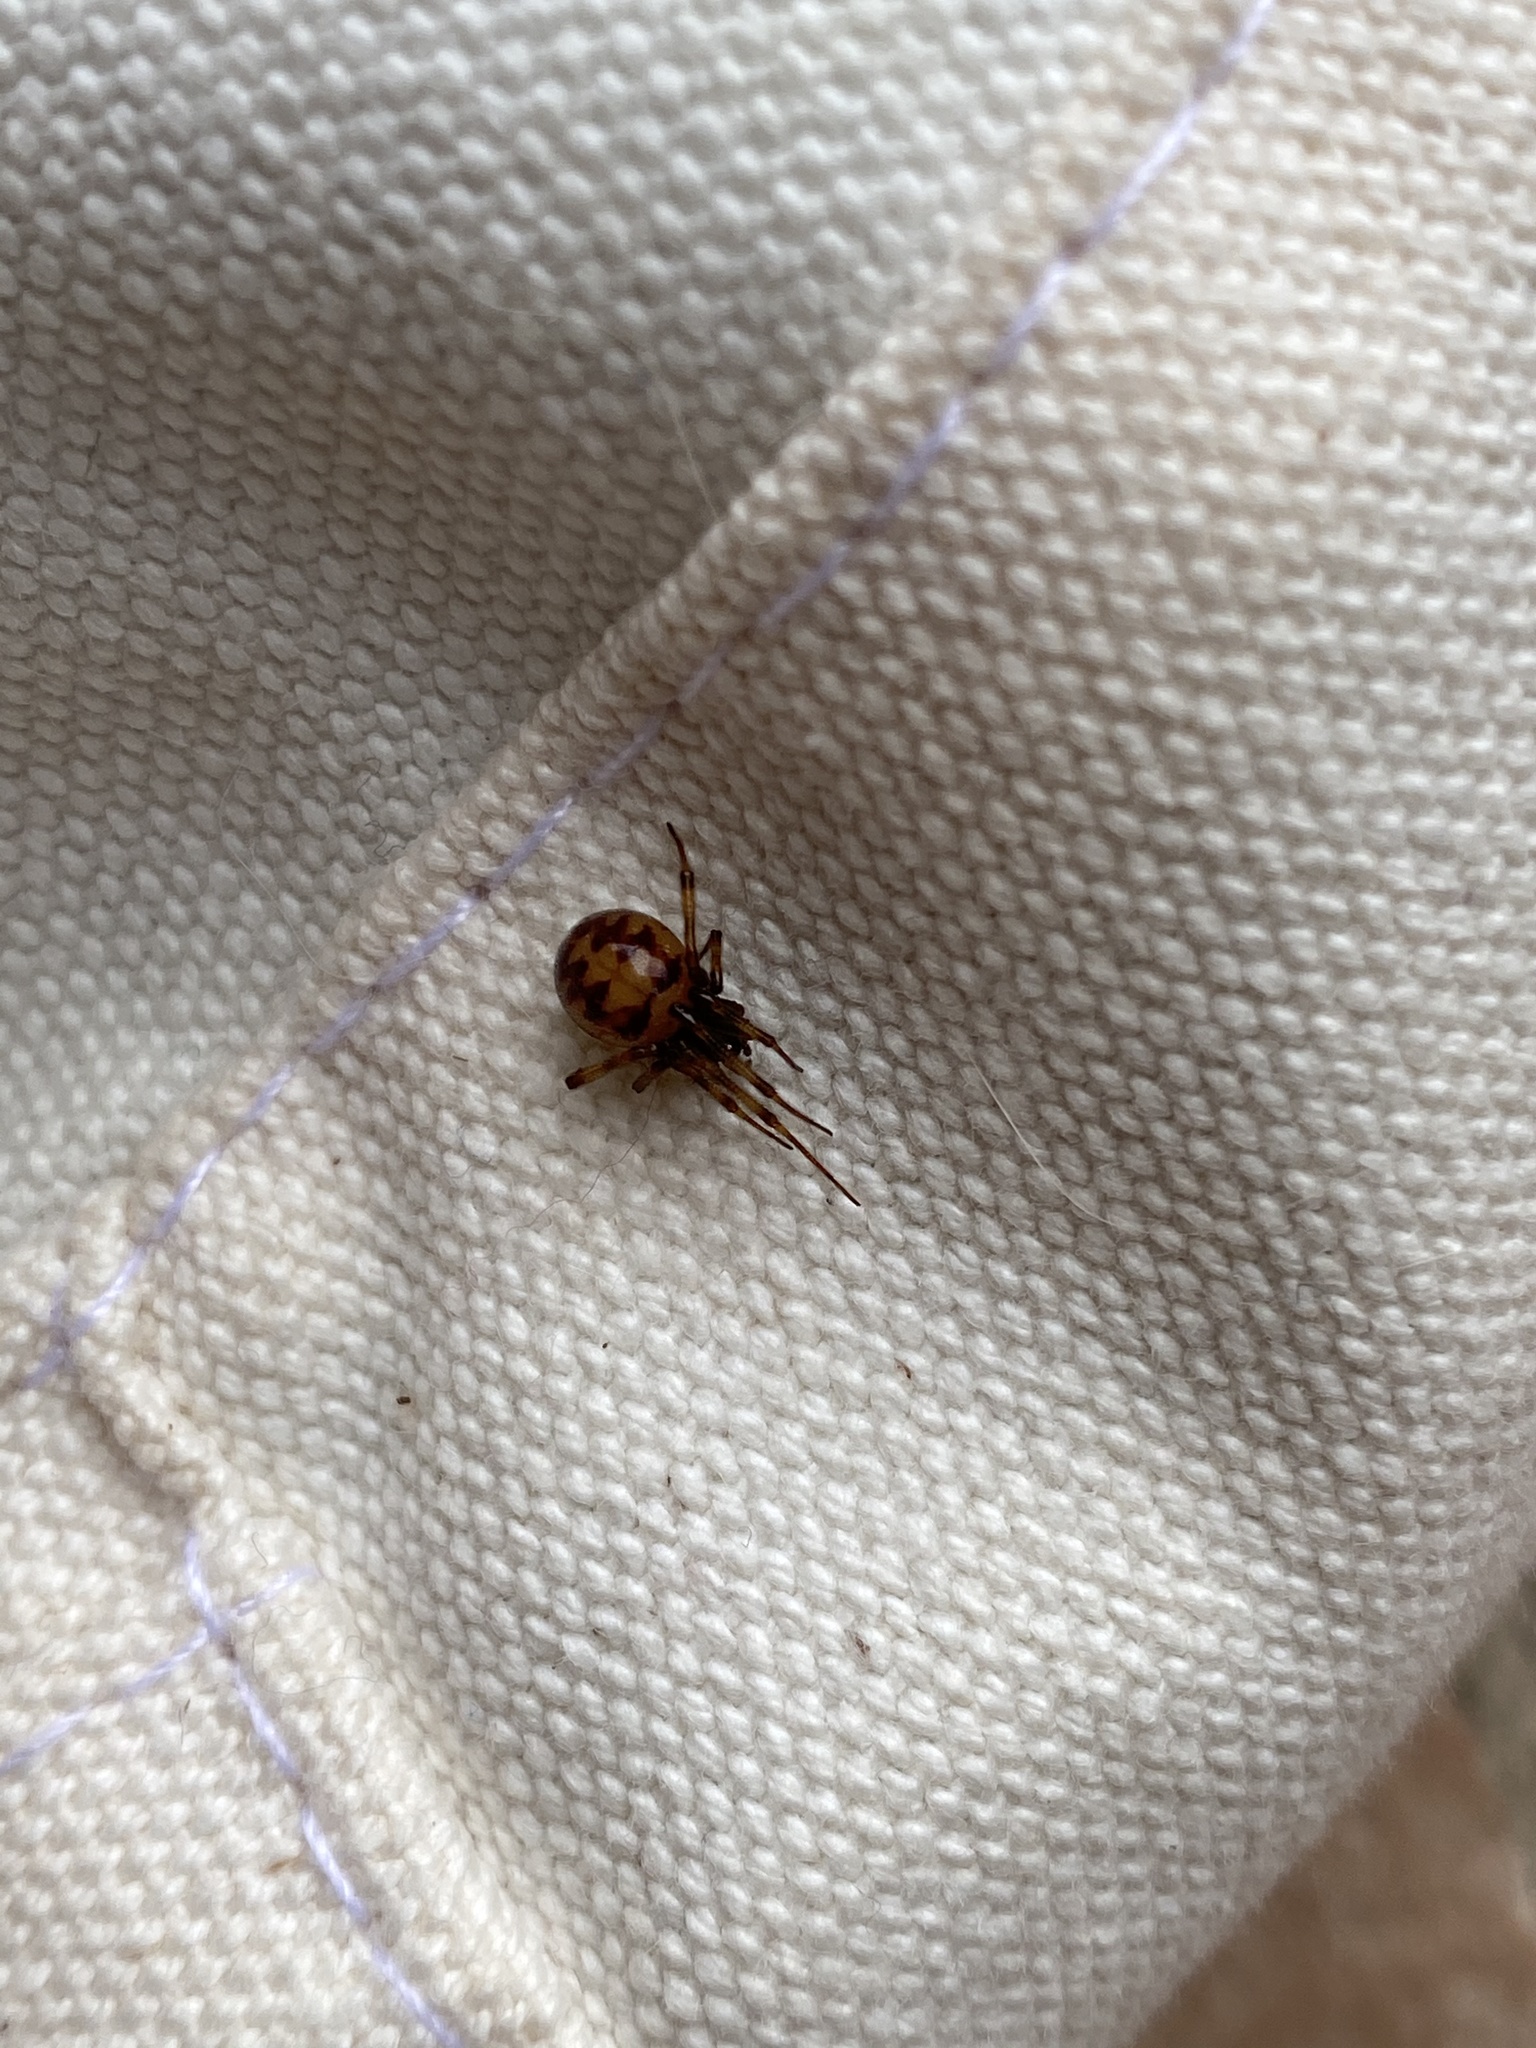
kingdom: Animalia
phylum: Arthropoda
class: Arachnida
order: Araneae
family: Theridiidae
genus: Steatoda
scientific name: Steatoda triangulosa
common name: Triangulate bud spider
